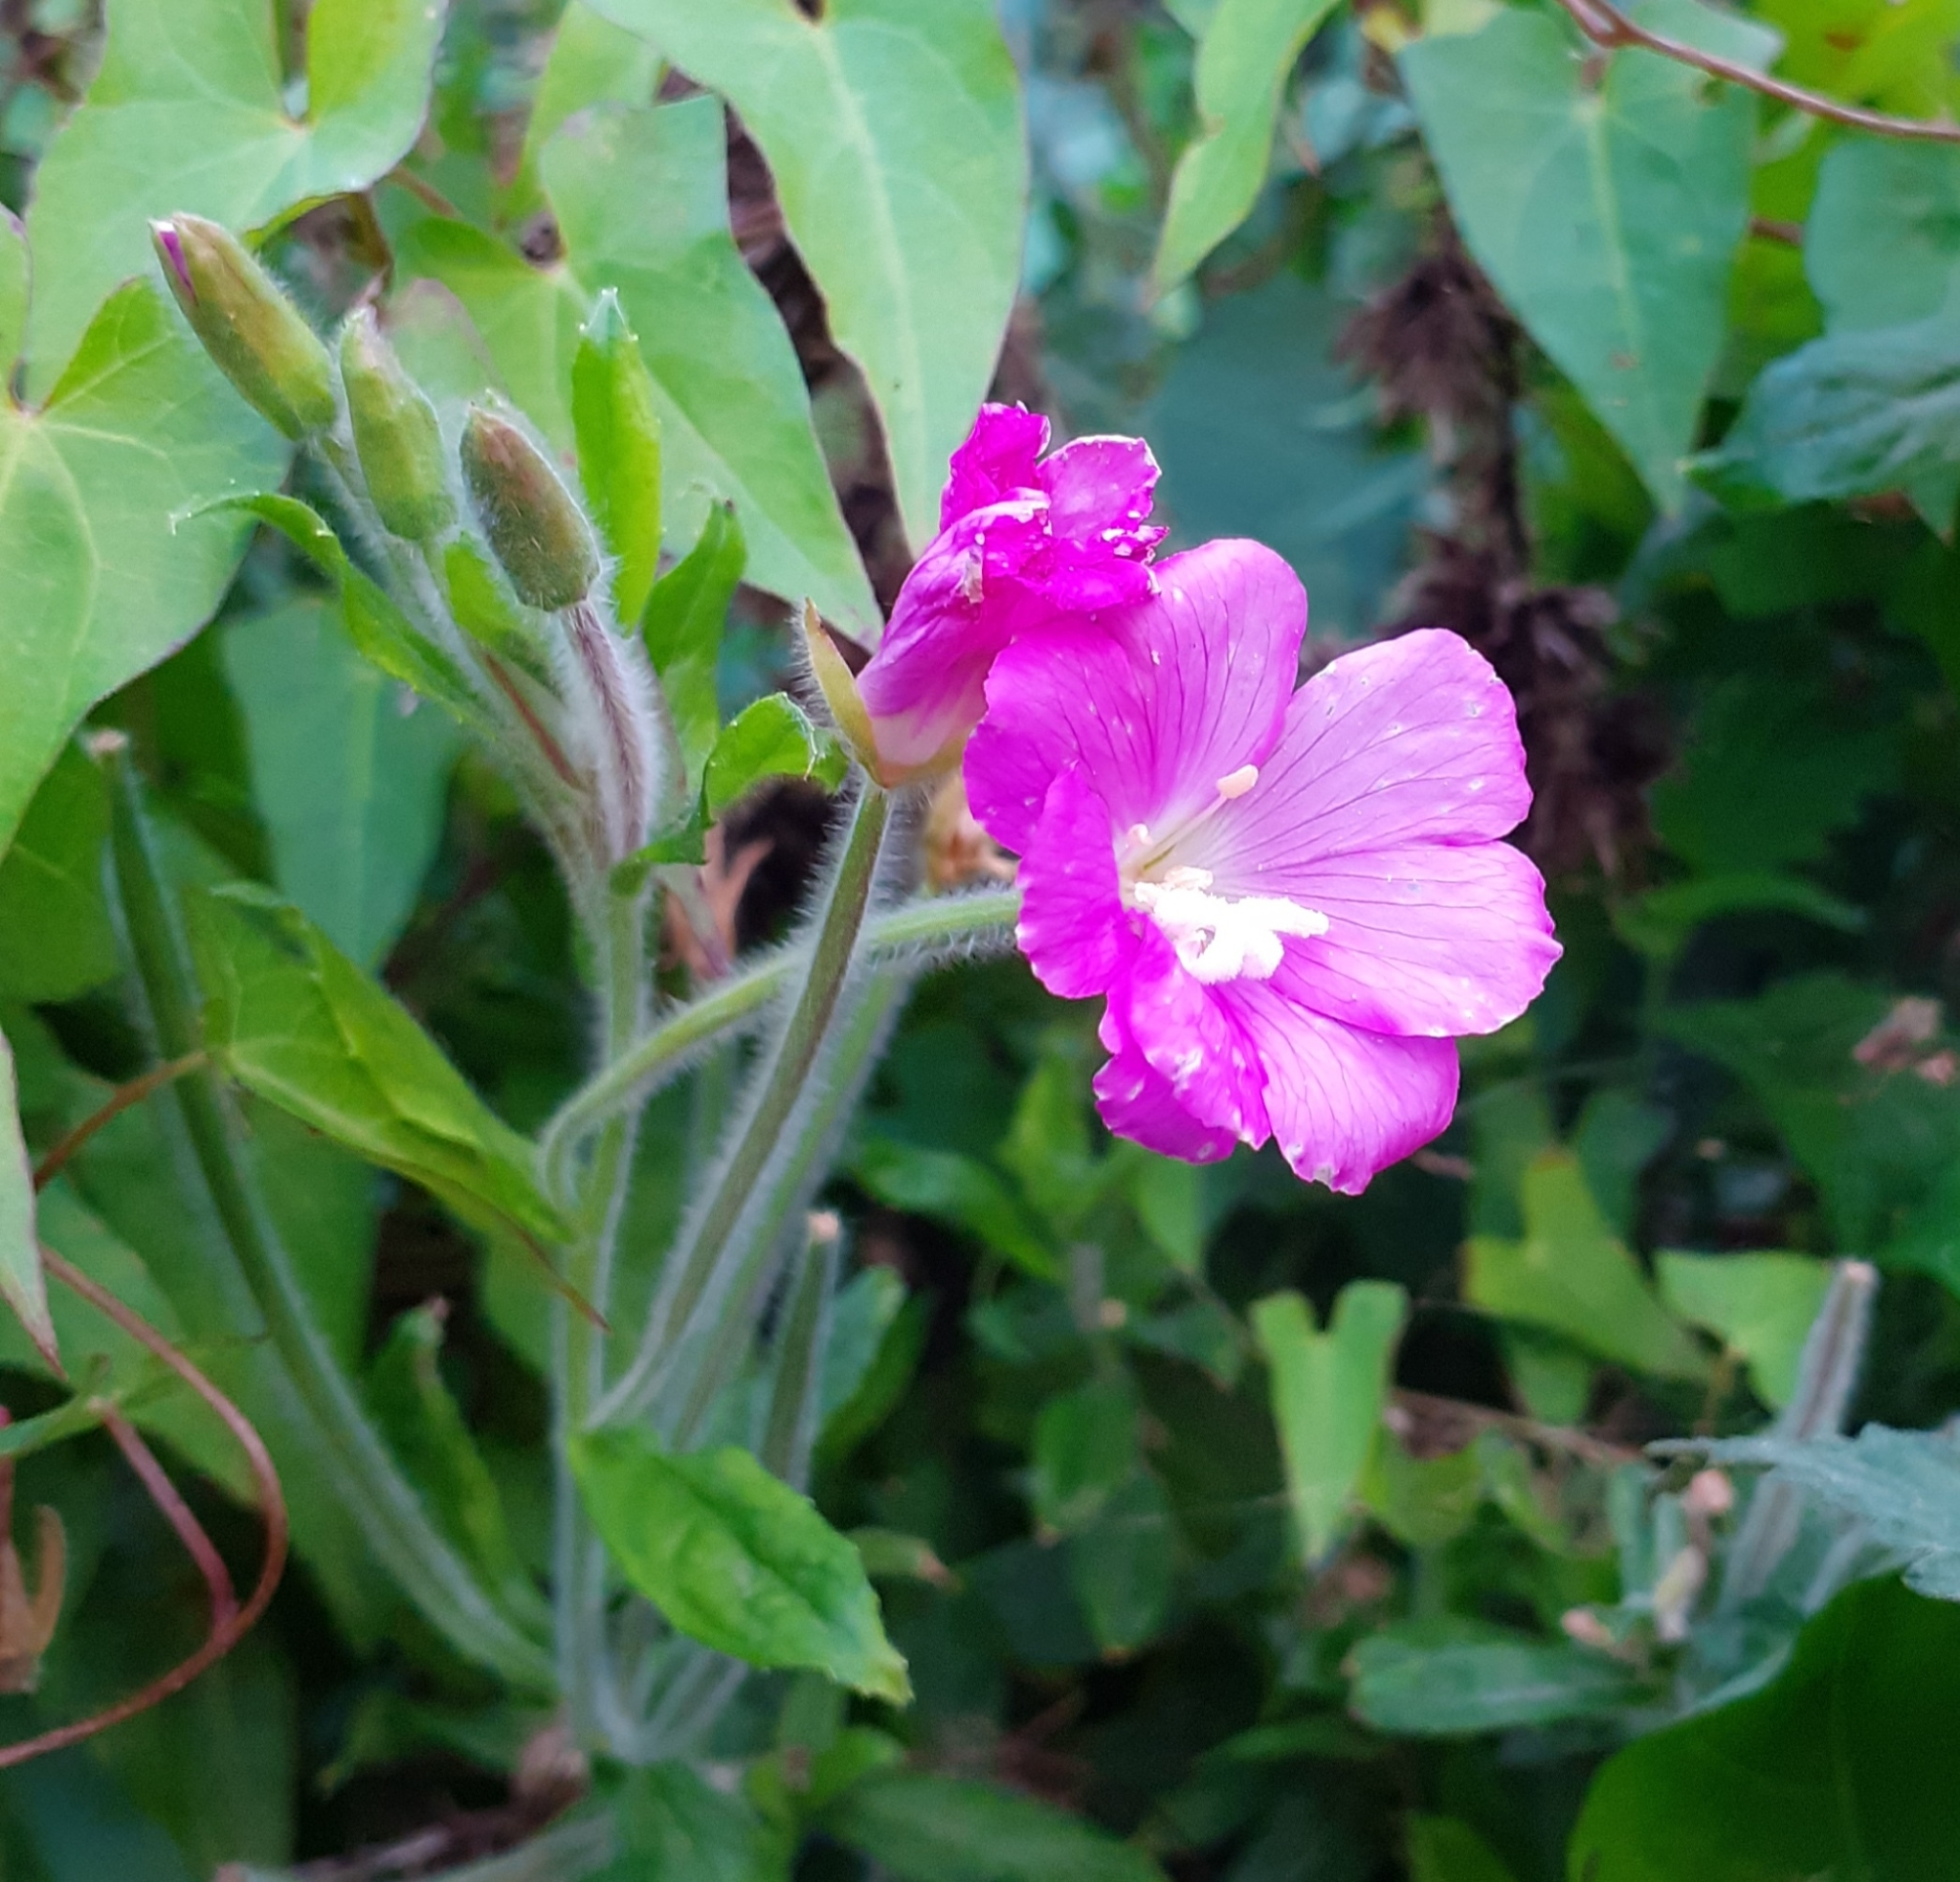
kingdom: Plantae
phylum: Tracheophyta
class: Magnoliopsida
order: Myrtales
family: Onagraceae
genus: Epilobium
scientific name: Epilobium hirsutum
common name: Great willowherb
